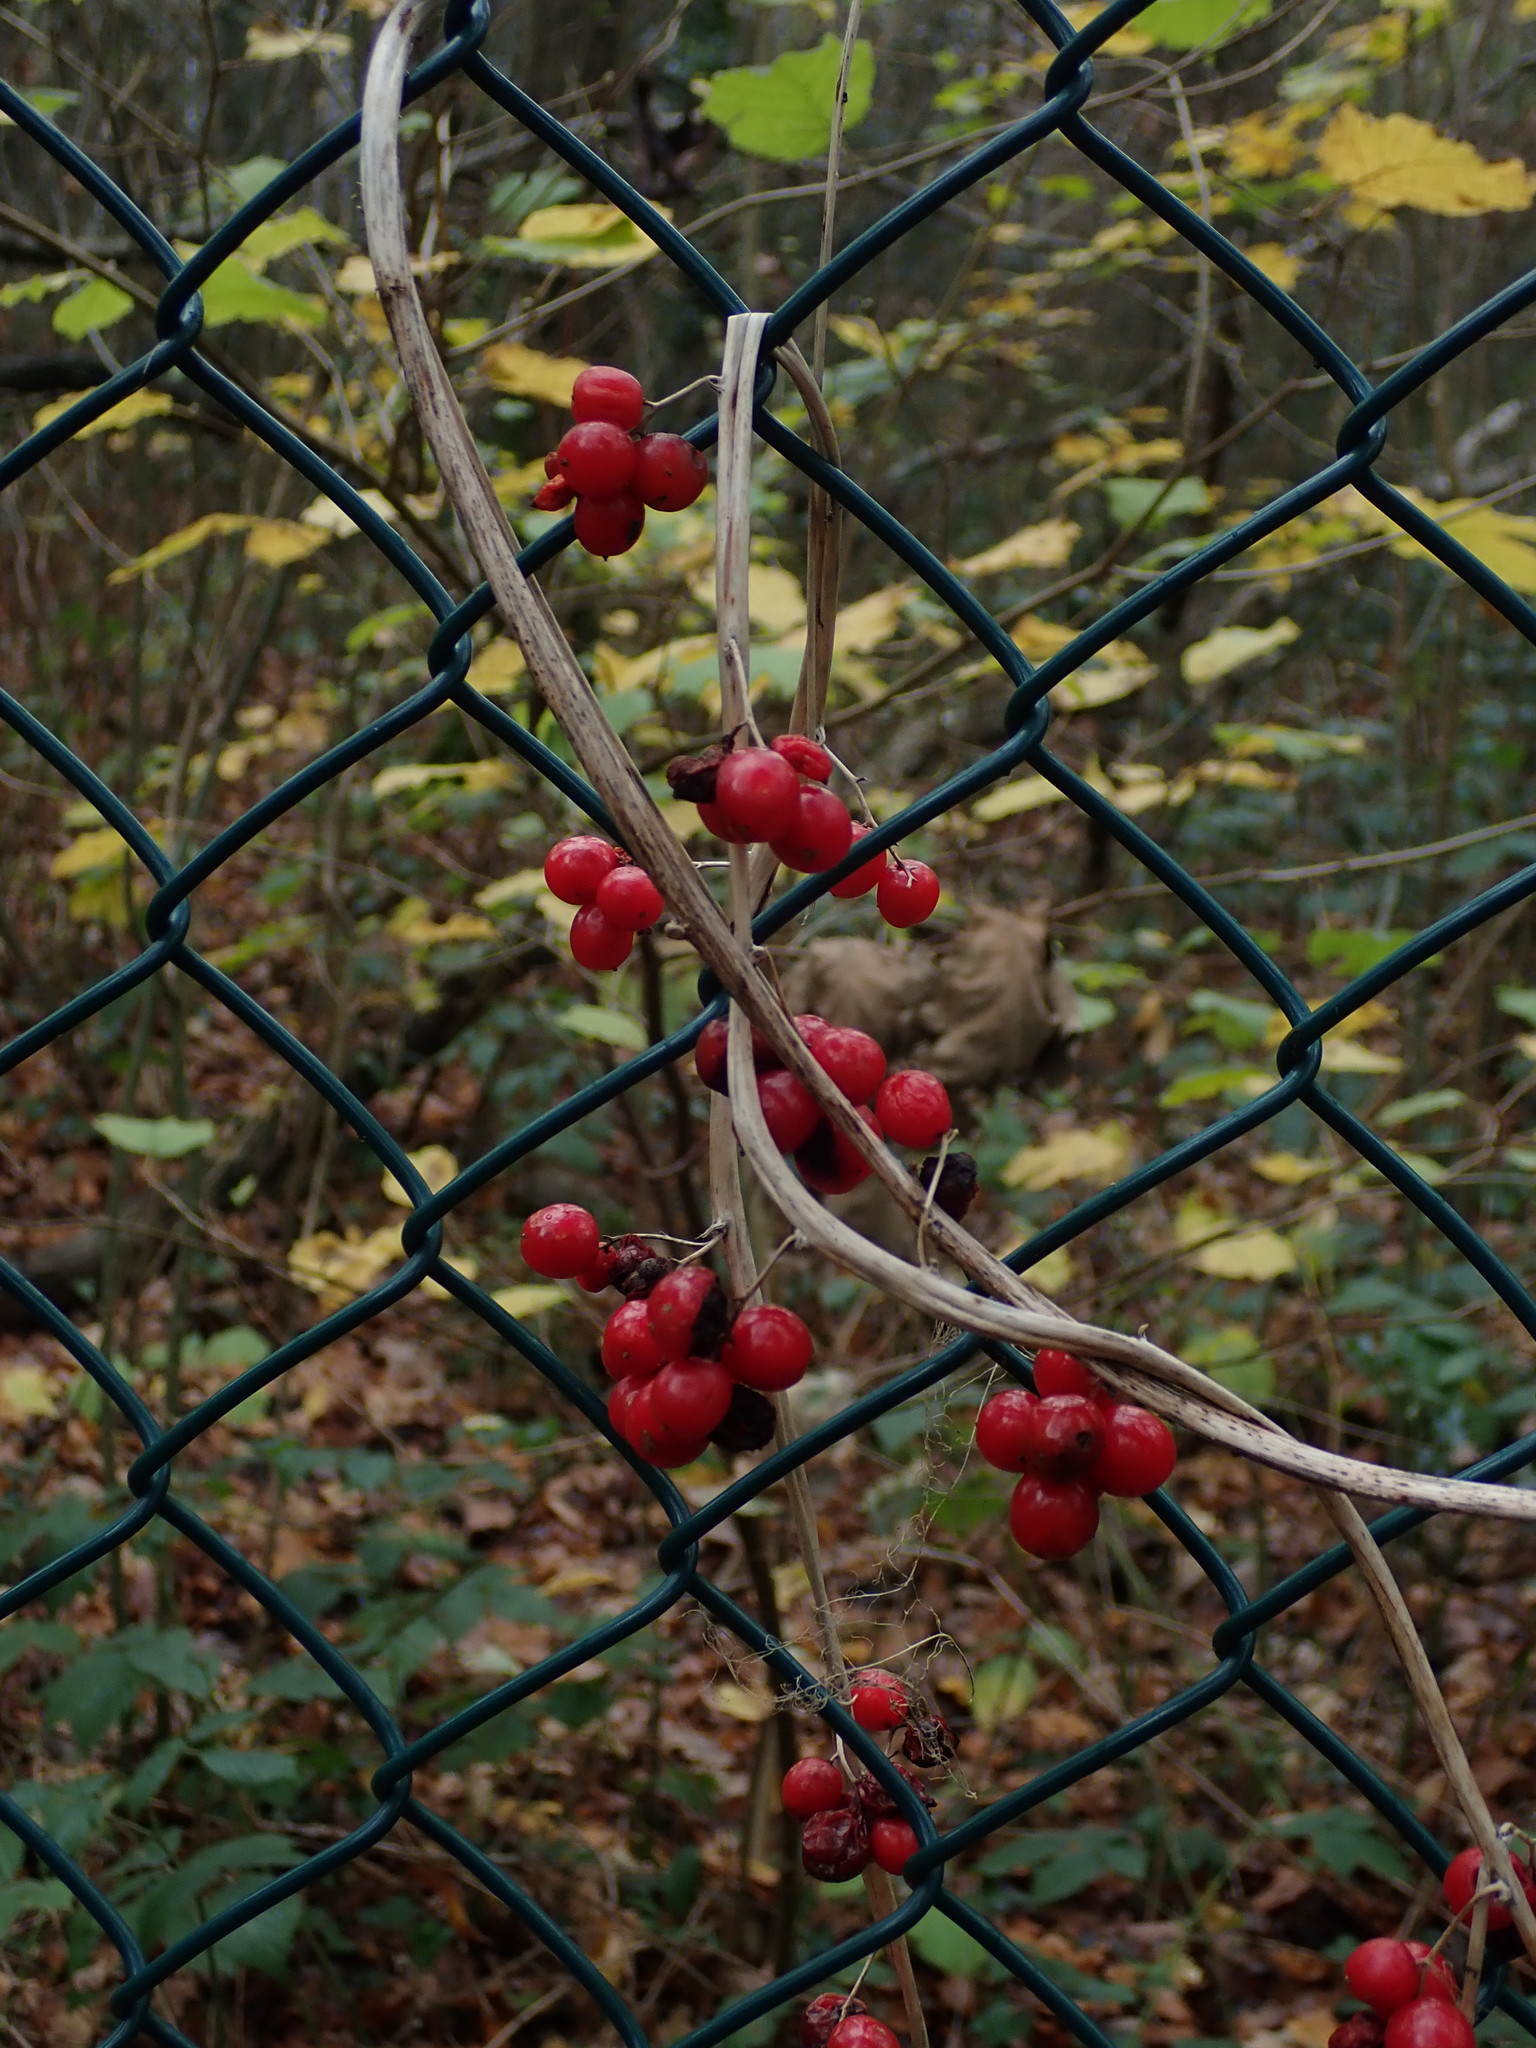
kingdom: Plantae
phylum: Tracheophyta
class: Liliopsida
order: Dioscoreales
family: Dioscoreaceae
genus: Dioscorea
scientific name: Dioscorea communis
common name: Black-bindweed
